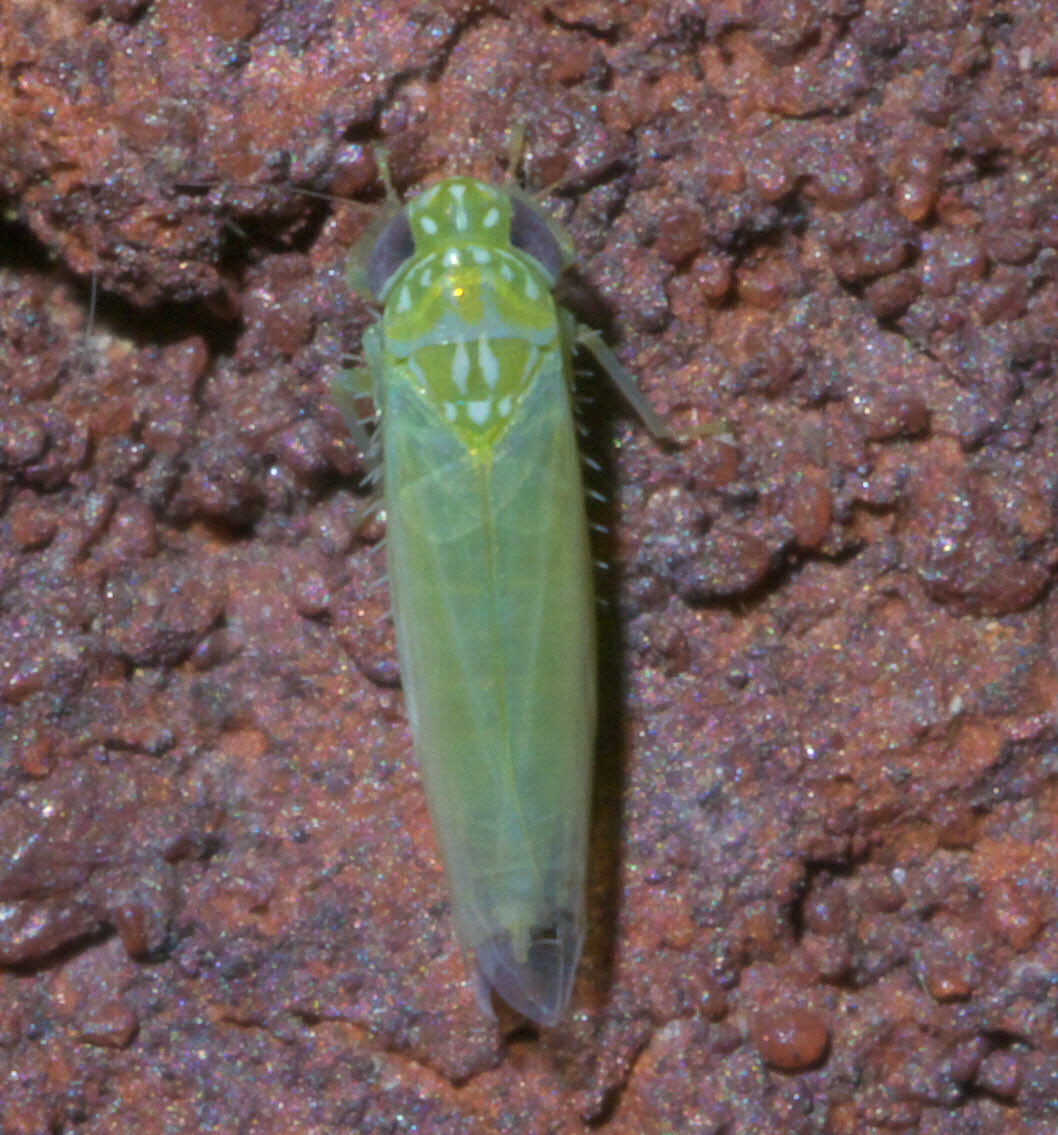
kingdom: Animalia
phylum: Arthropoda
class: Insecta
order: Hemiptera
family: Cicadellidae
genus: Empoasca
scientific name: Empoasca fabae
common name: Potato leafhopper
